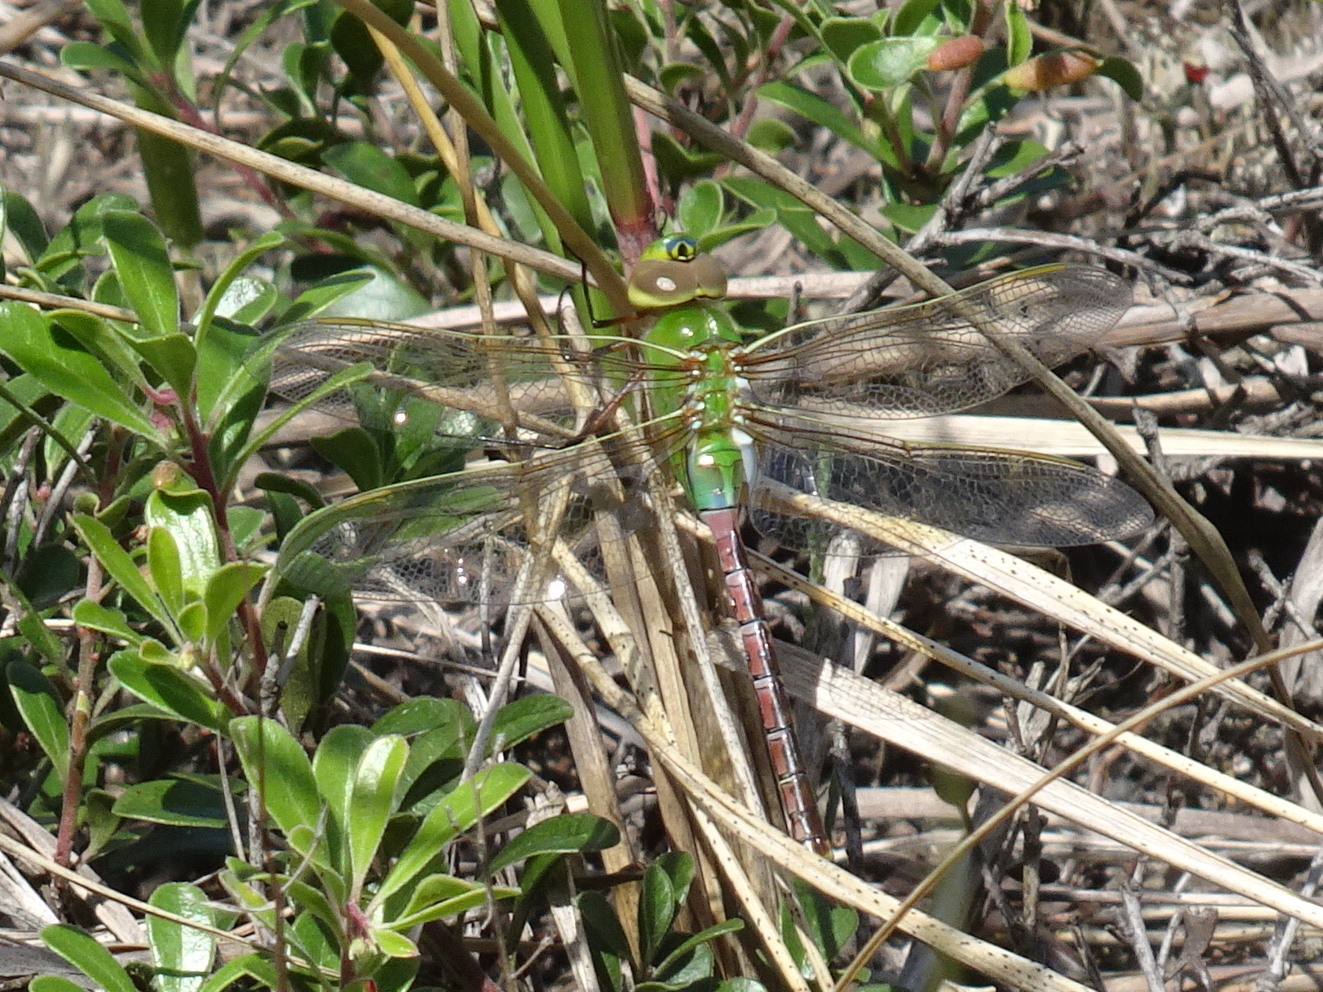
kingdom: Animalia
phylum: Arthropoda
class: Insecta
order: Odonata
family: Aeshnidae
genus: Anax
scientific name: Anax junius
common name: Common green darner
